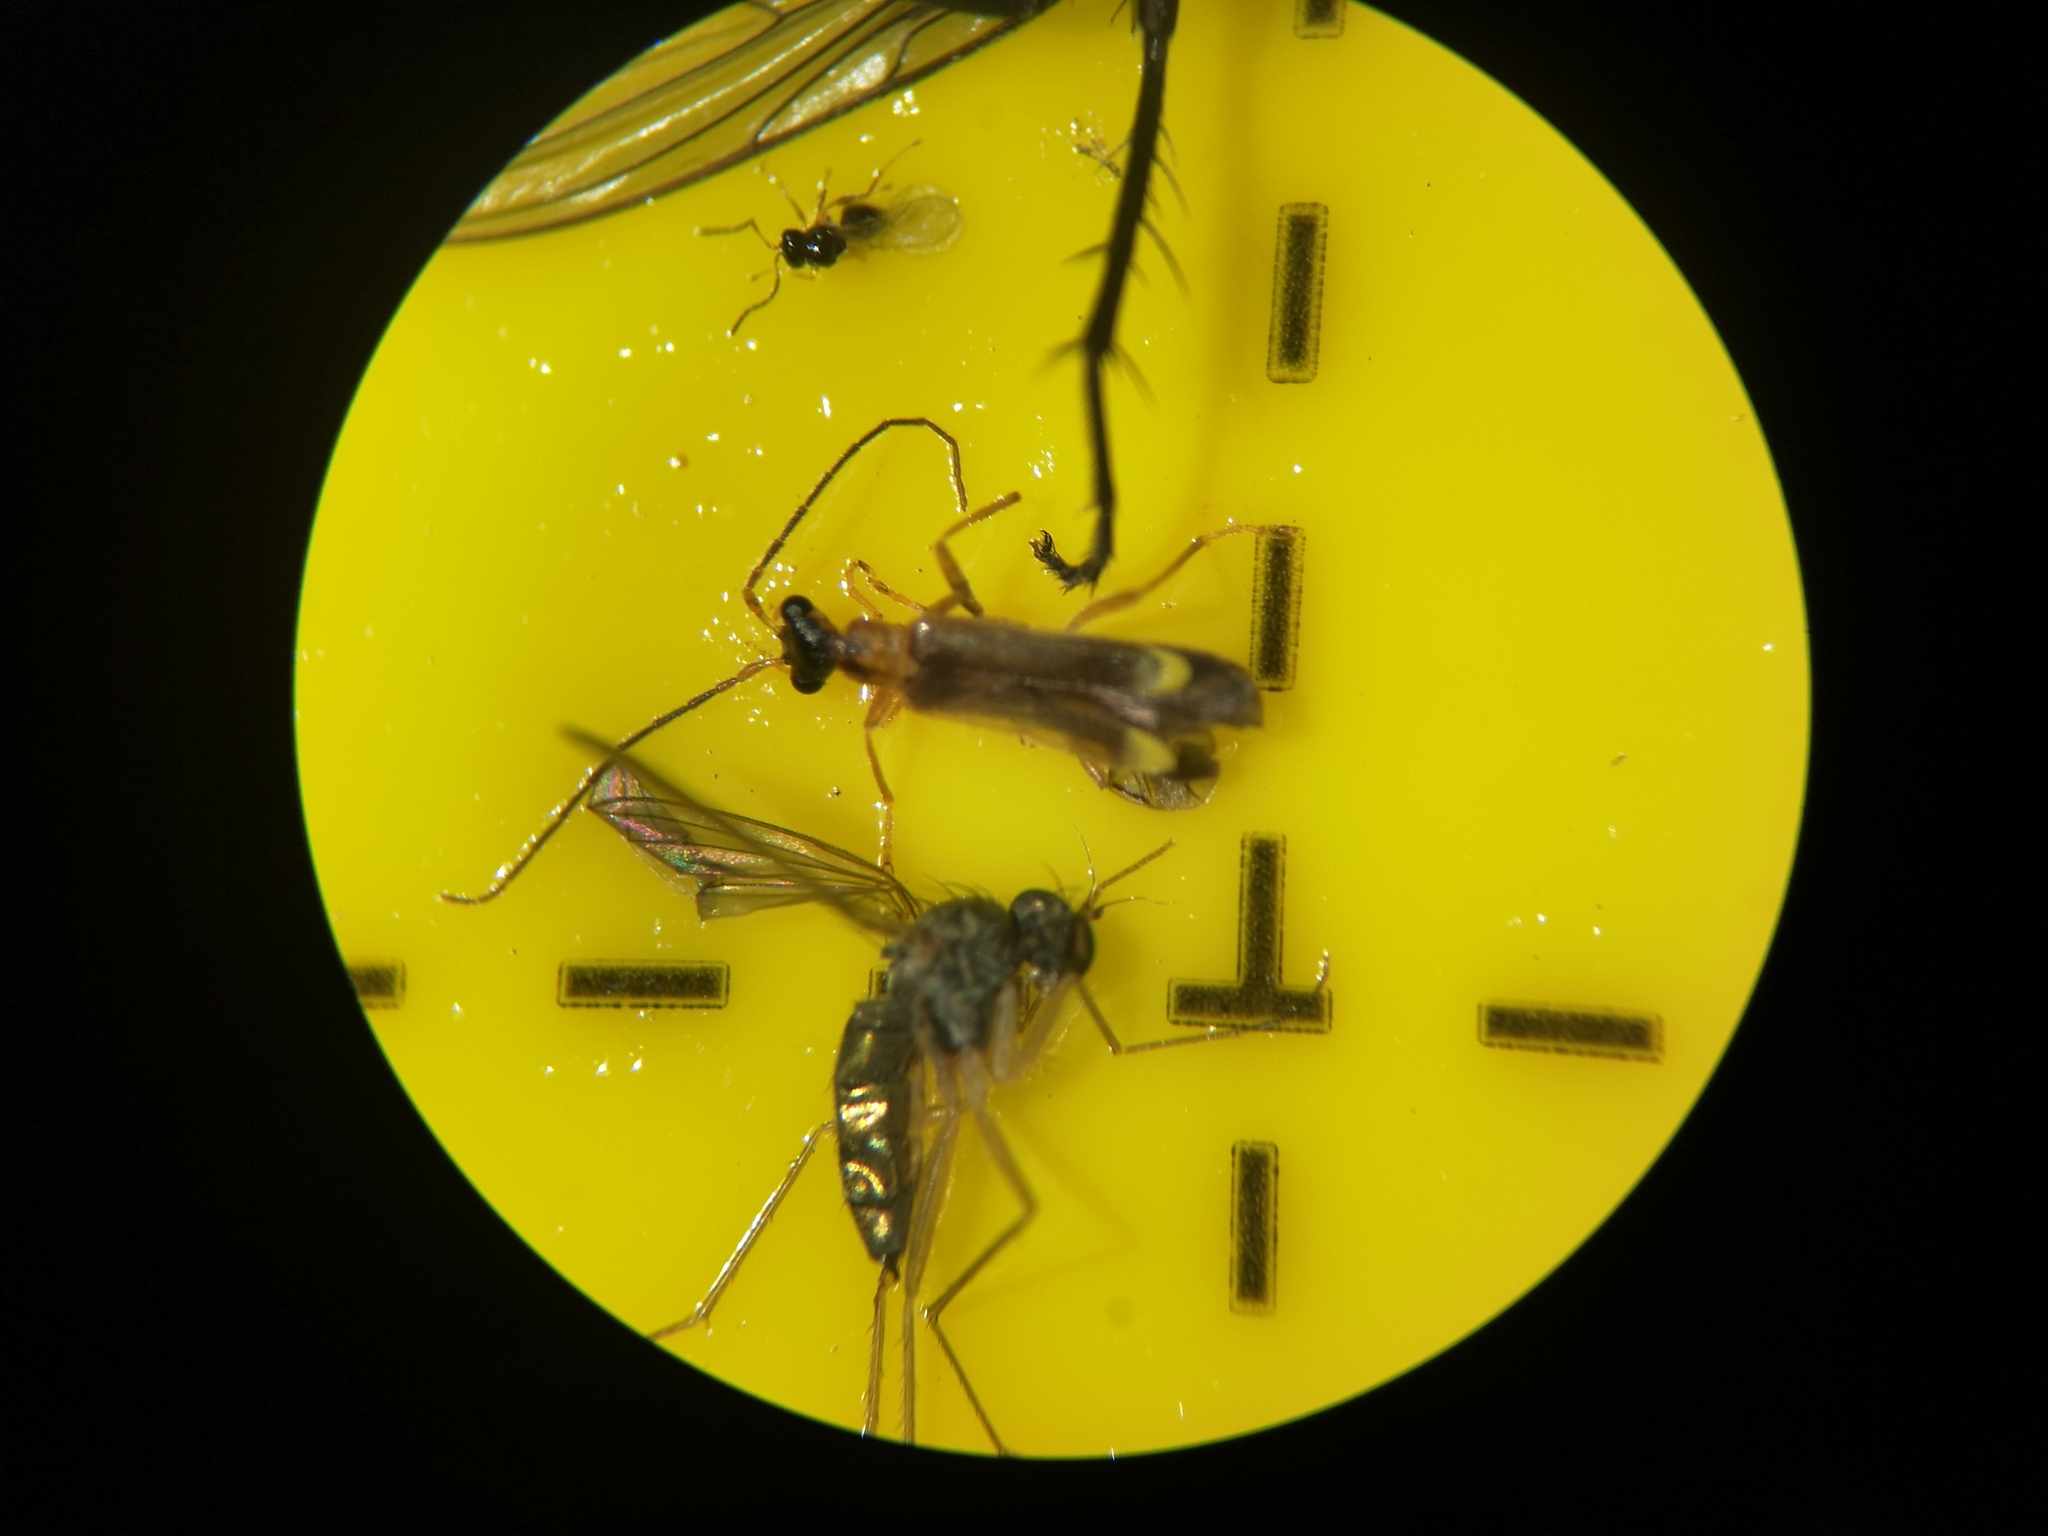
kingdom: Animalia
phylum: Arthropoda
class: Insecta
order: Coleoptera
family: Cantharidae
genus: Malthinus
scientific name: Malthinus flaveolus
